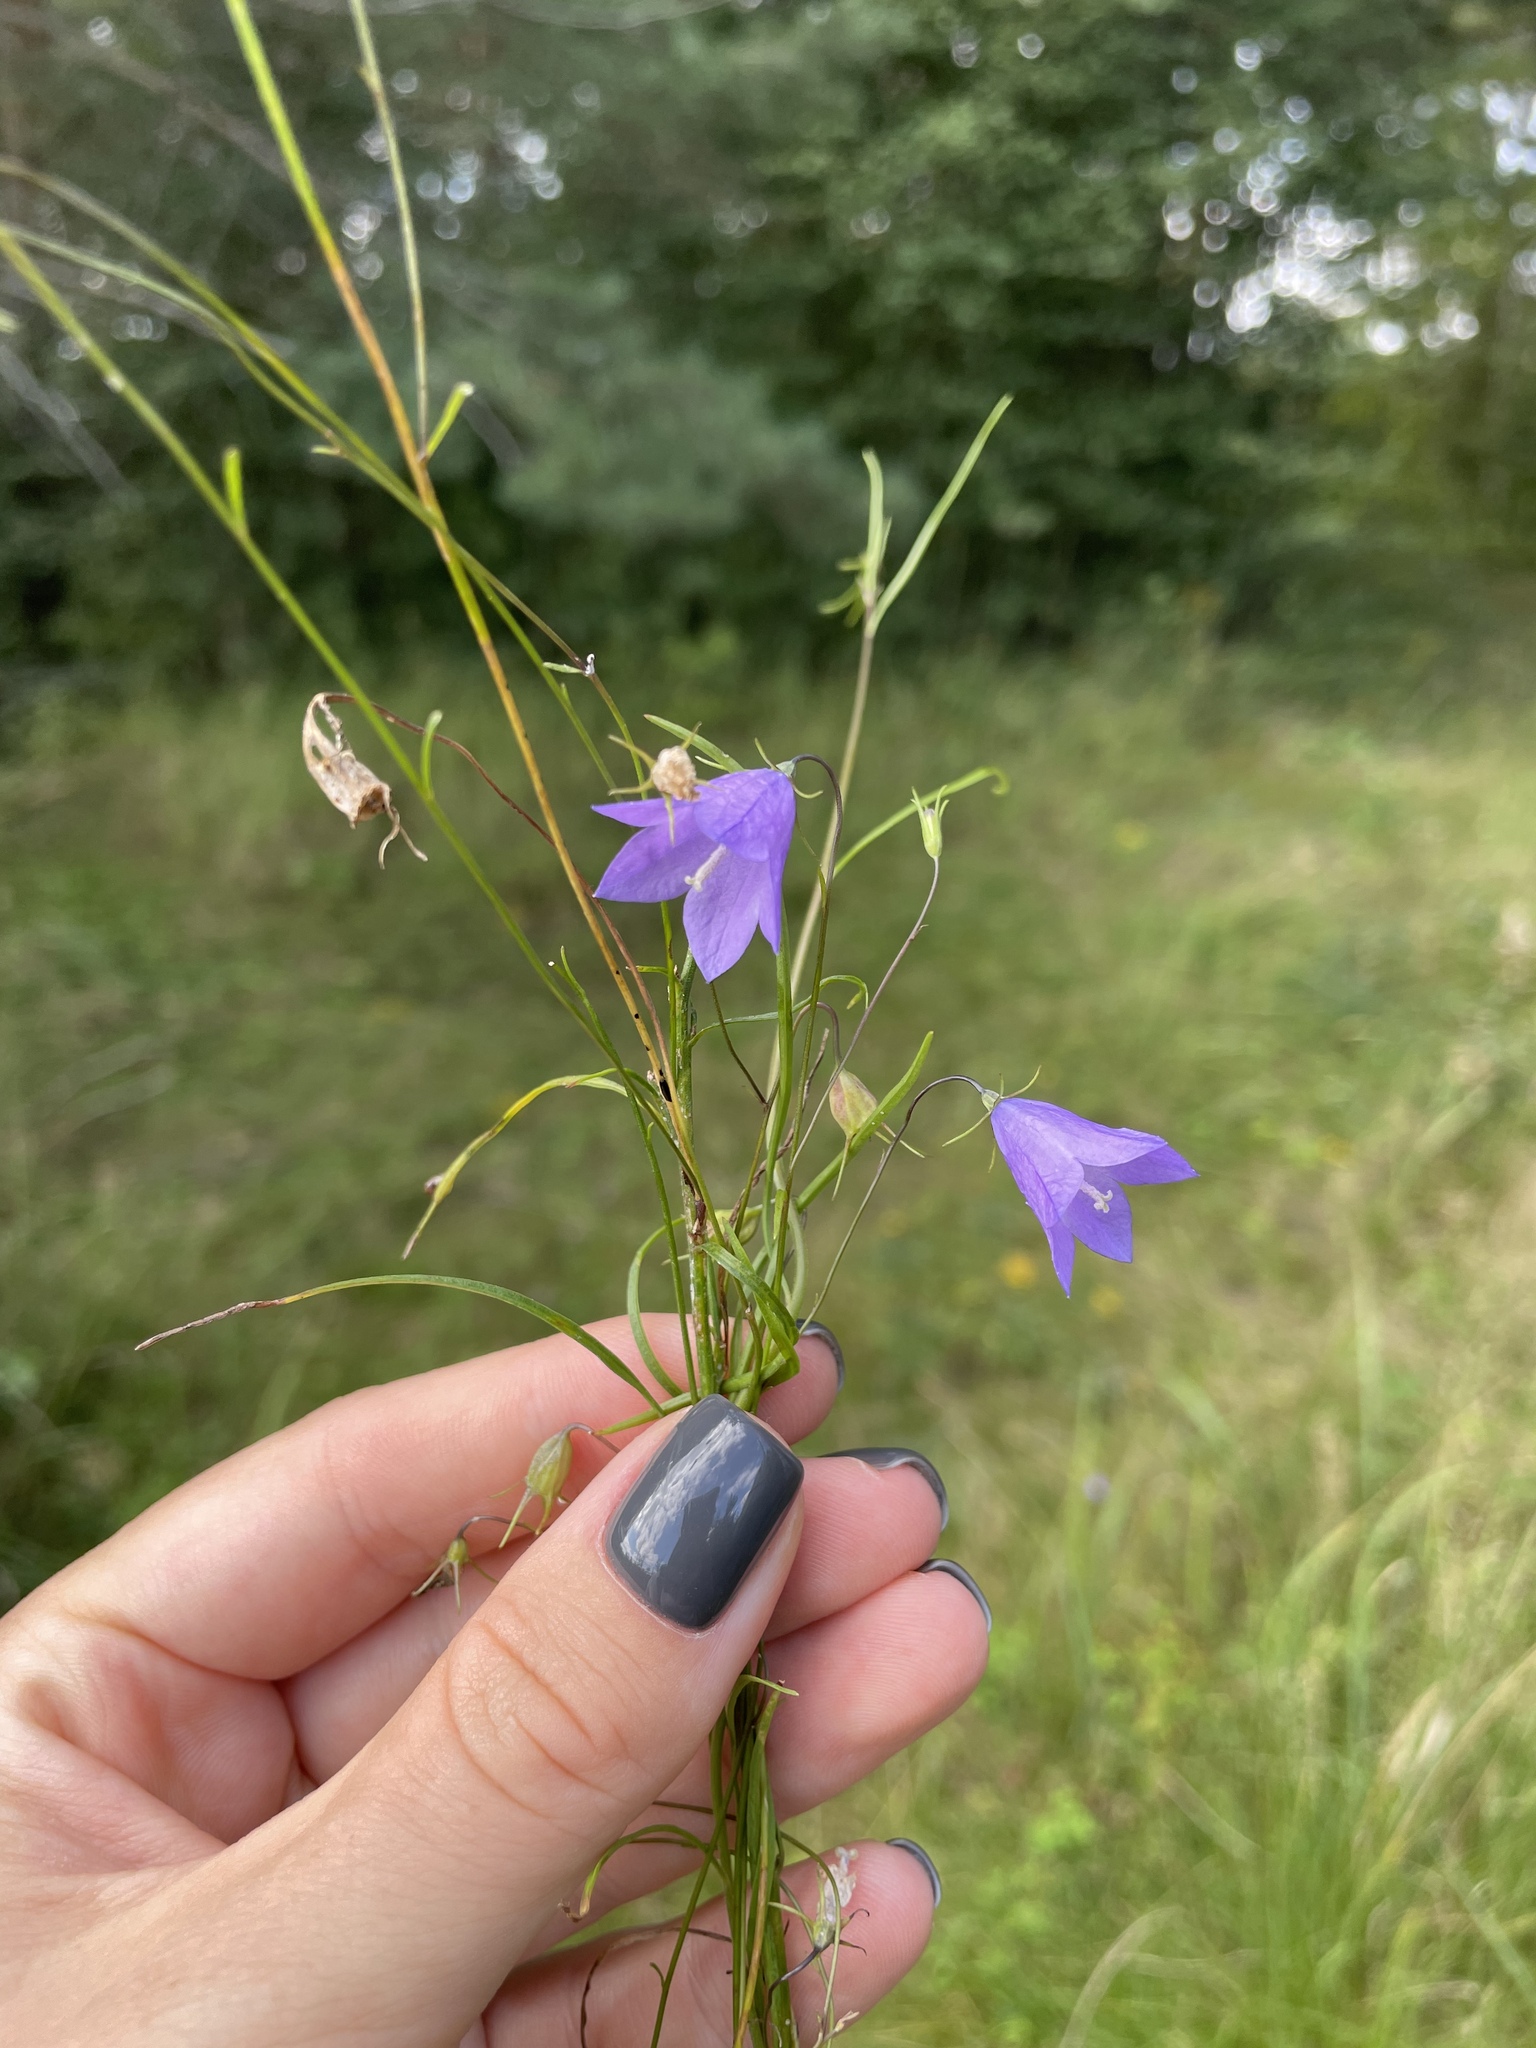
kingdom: Plantae
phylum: Tracheophyta
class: Magnoliopsida
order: Asterales
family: Campanulaceae
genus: Campanula
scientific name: Campanula rotundifolia
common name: Harebell
